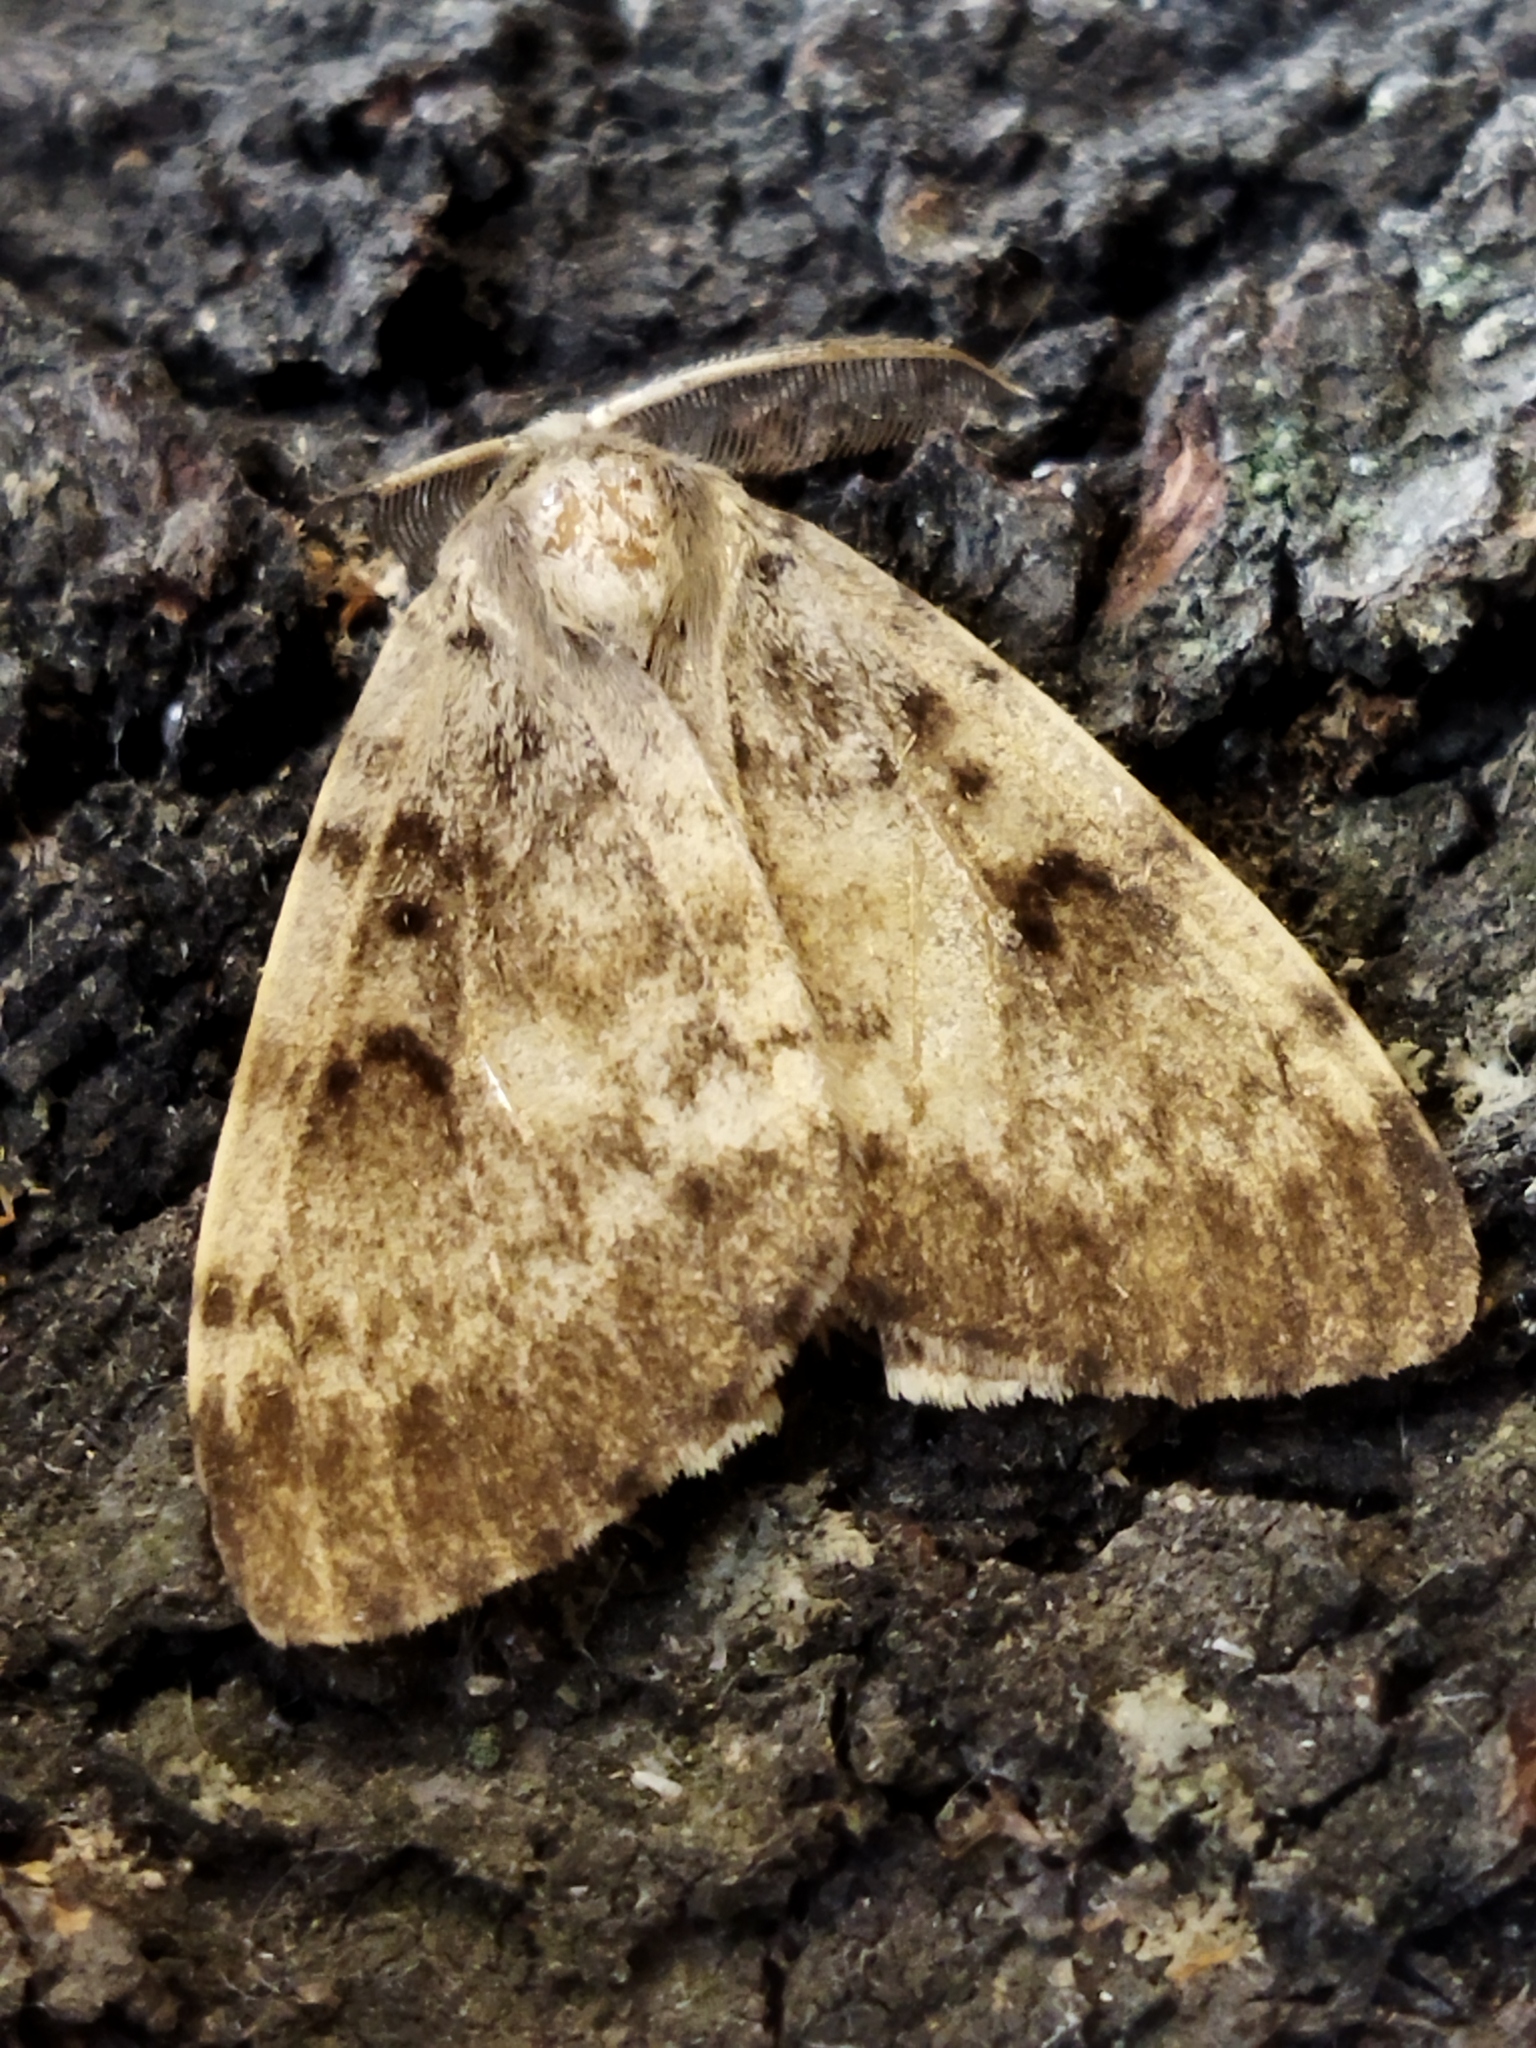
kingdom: Animalia
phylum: Arthropoda
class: Insecta
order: Lepidoptera
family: Erebidae
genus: Lymantria
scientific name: Lymantria dispar
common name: Gypsy moth
